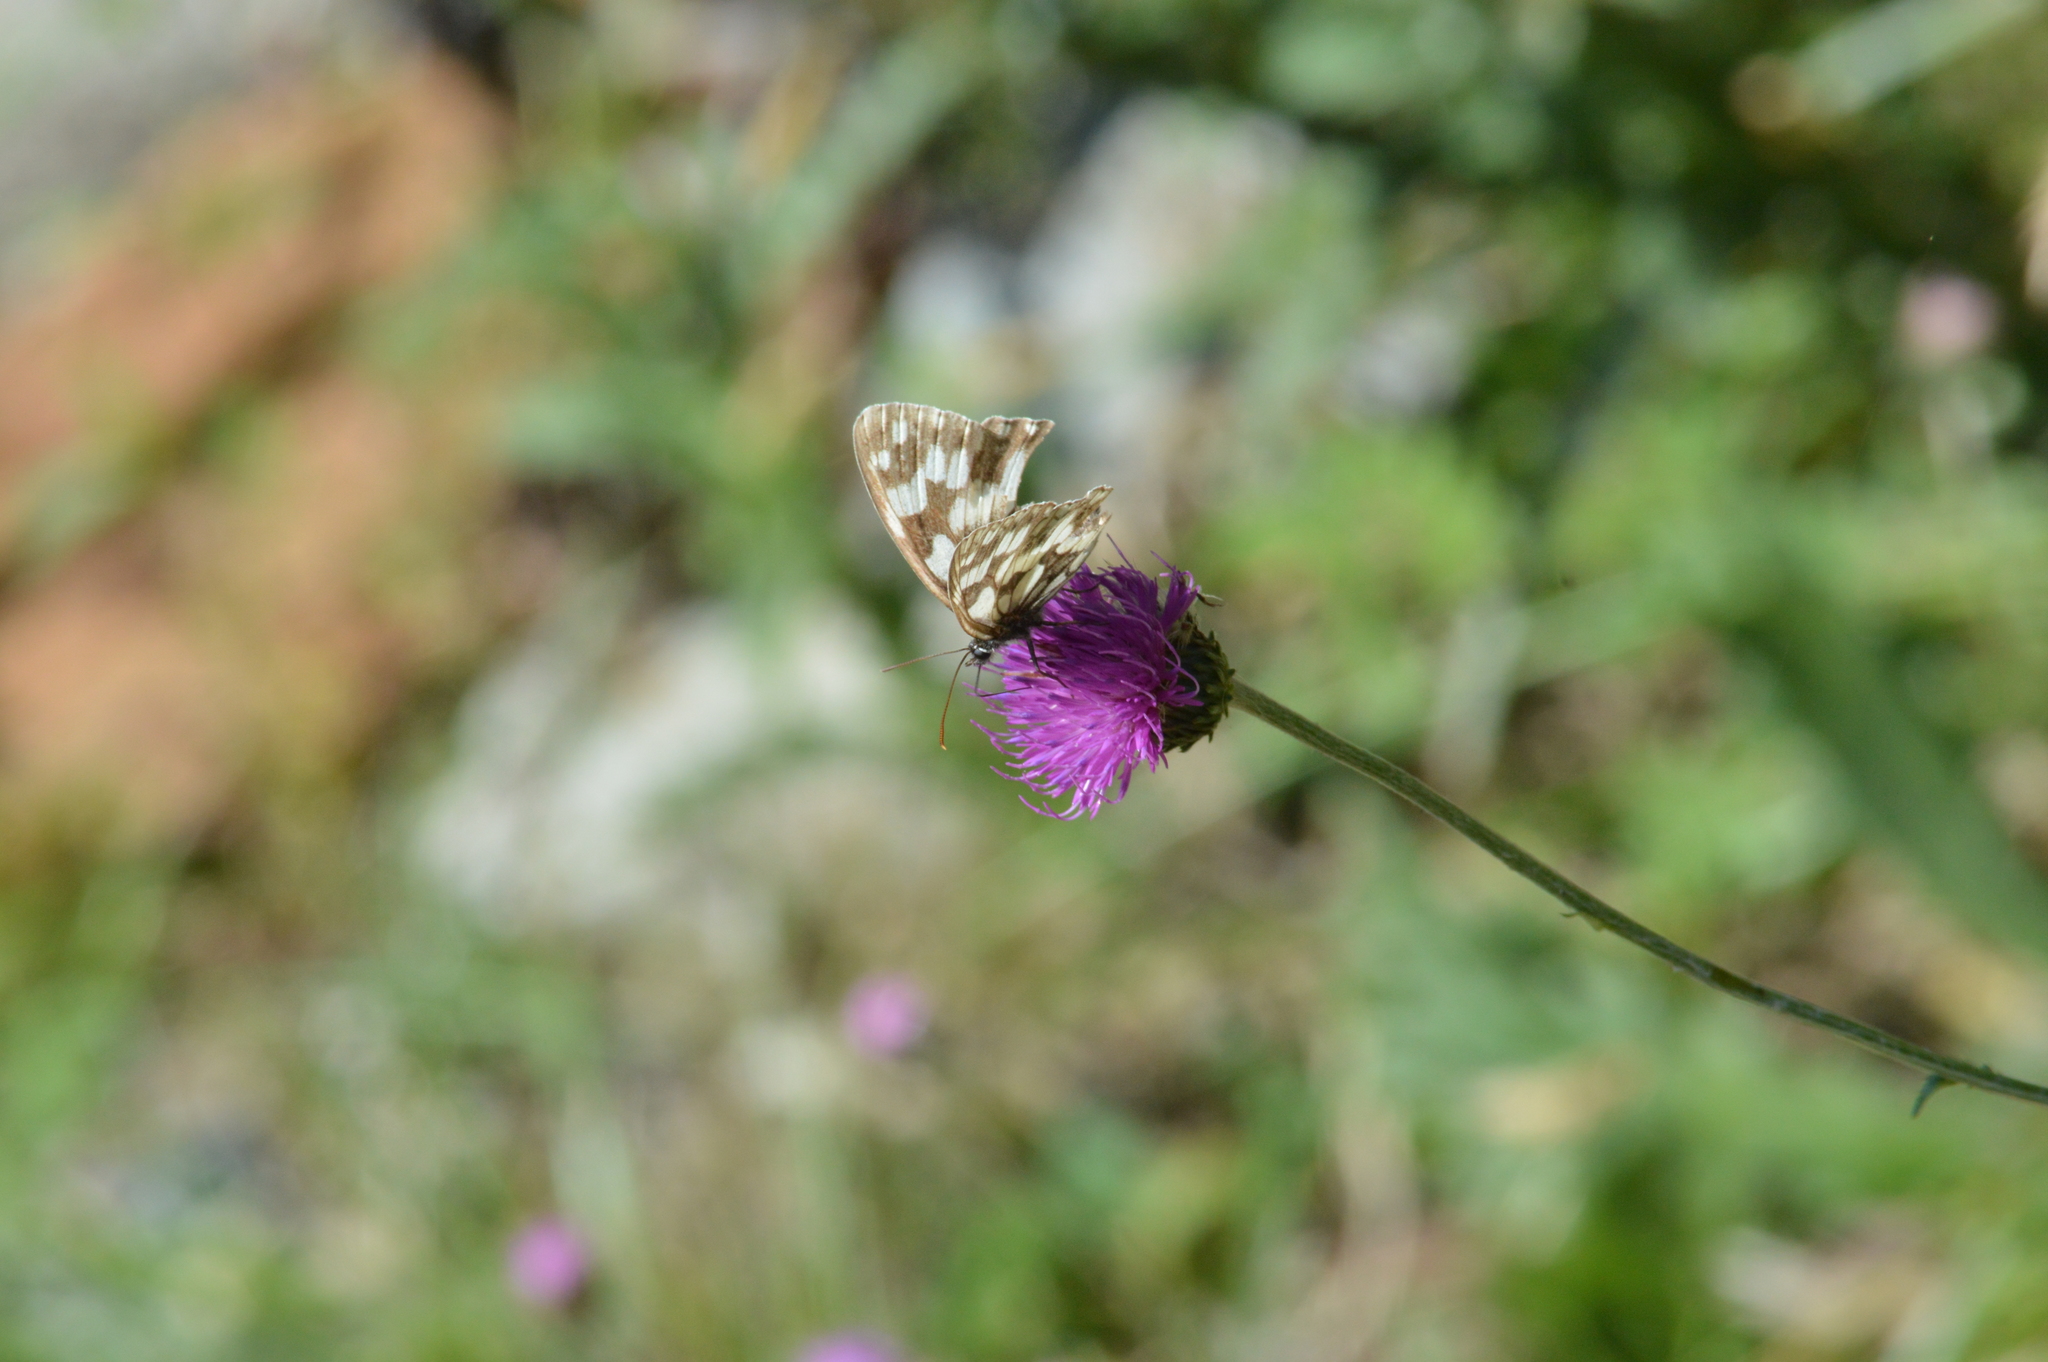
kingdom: Animalia
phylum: Arthropoda
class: Insecta
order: Lepidoptera
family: Nymphalidae
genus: Melanargia
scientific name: Melanargia galathea
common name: Marbled white
